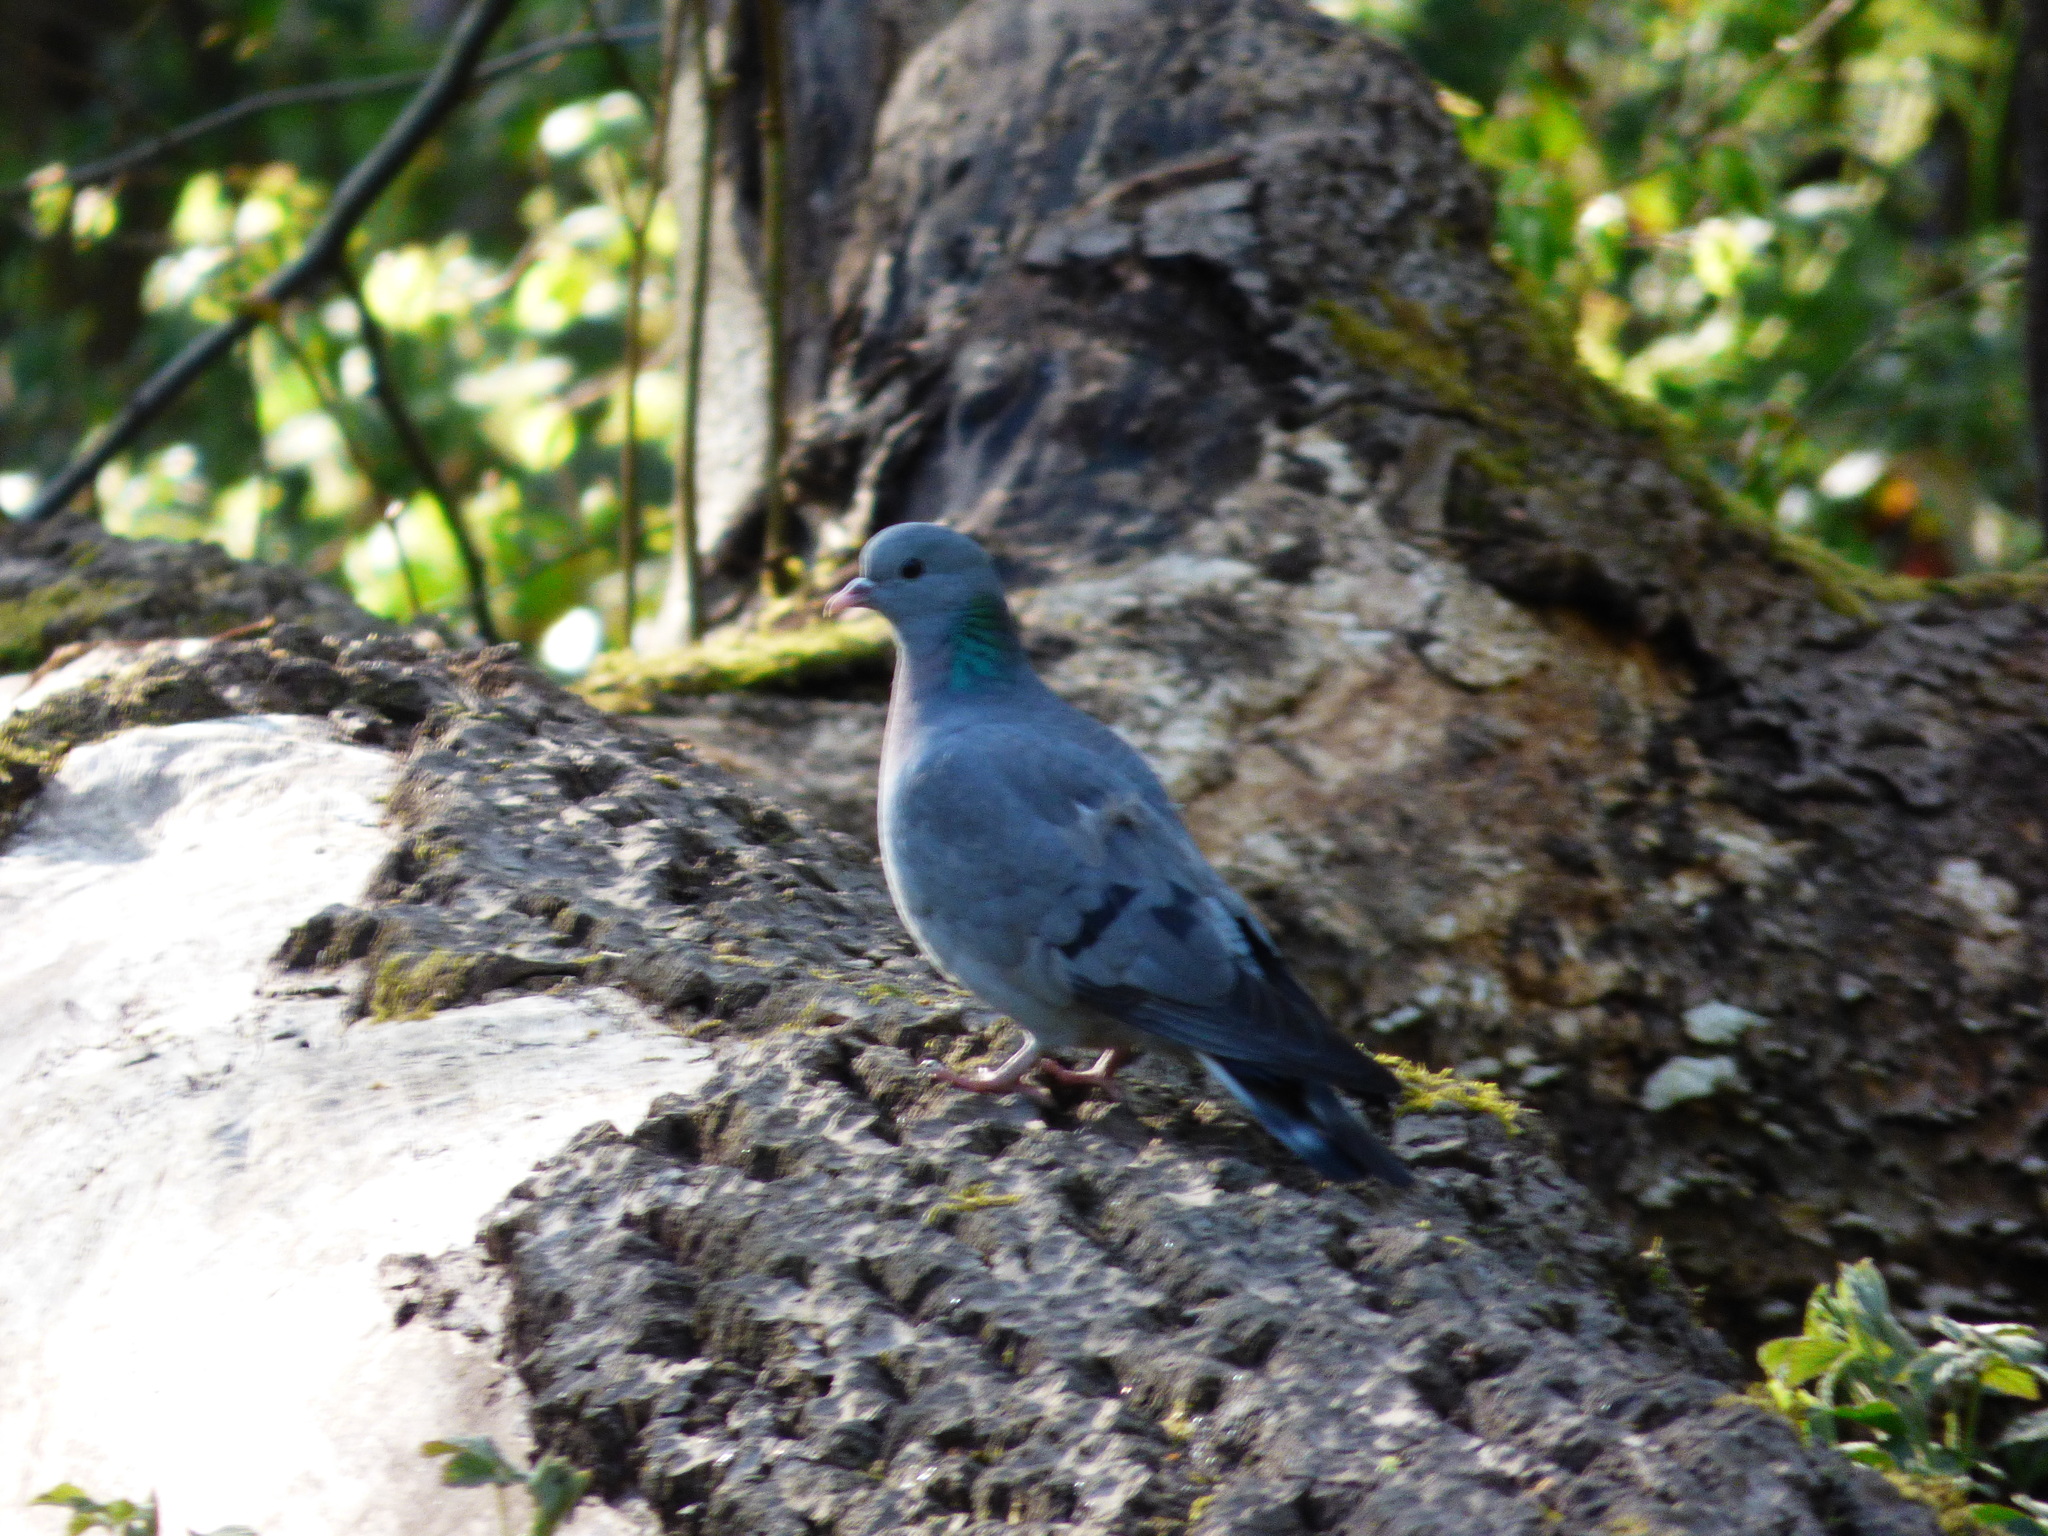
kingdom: Animalia
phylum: Chordata
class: Aves
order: Columbiformes
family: Columbidae
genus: Columba
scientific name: Columba oenas
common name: Stock dove
